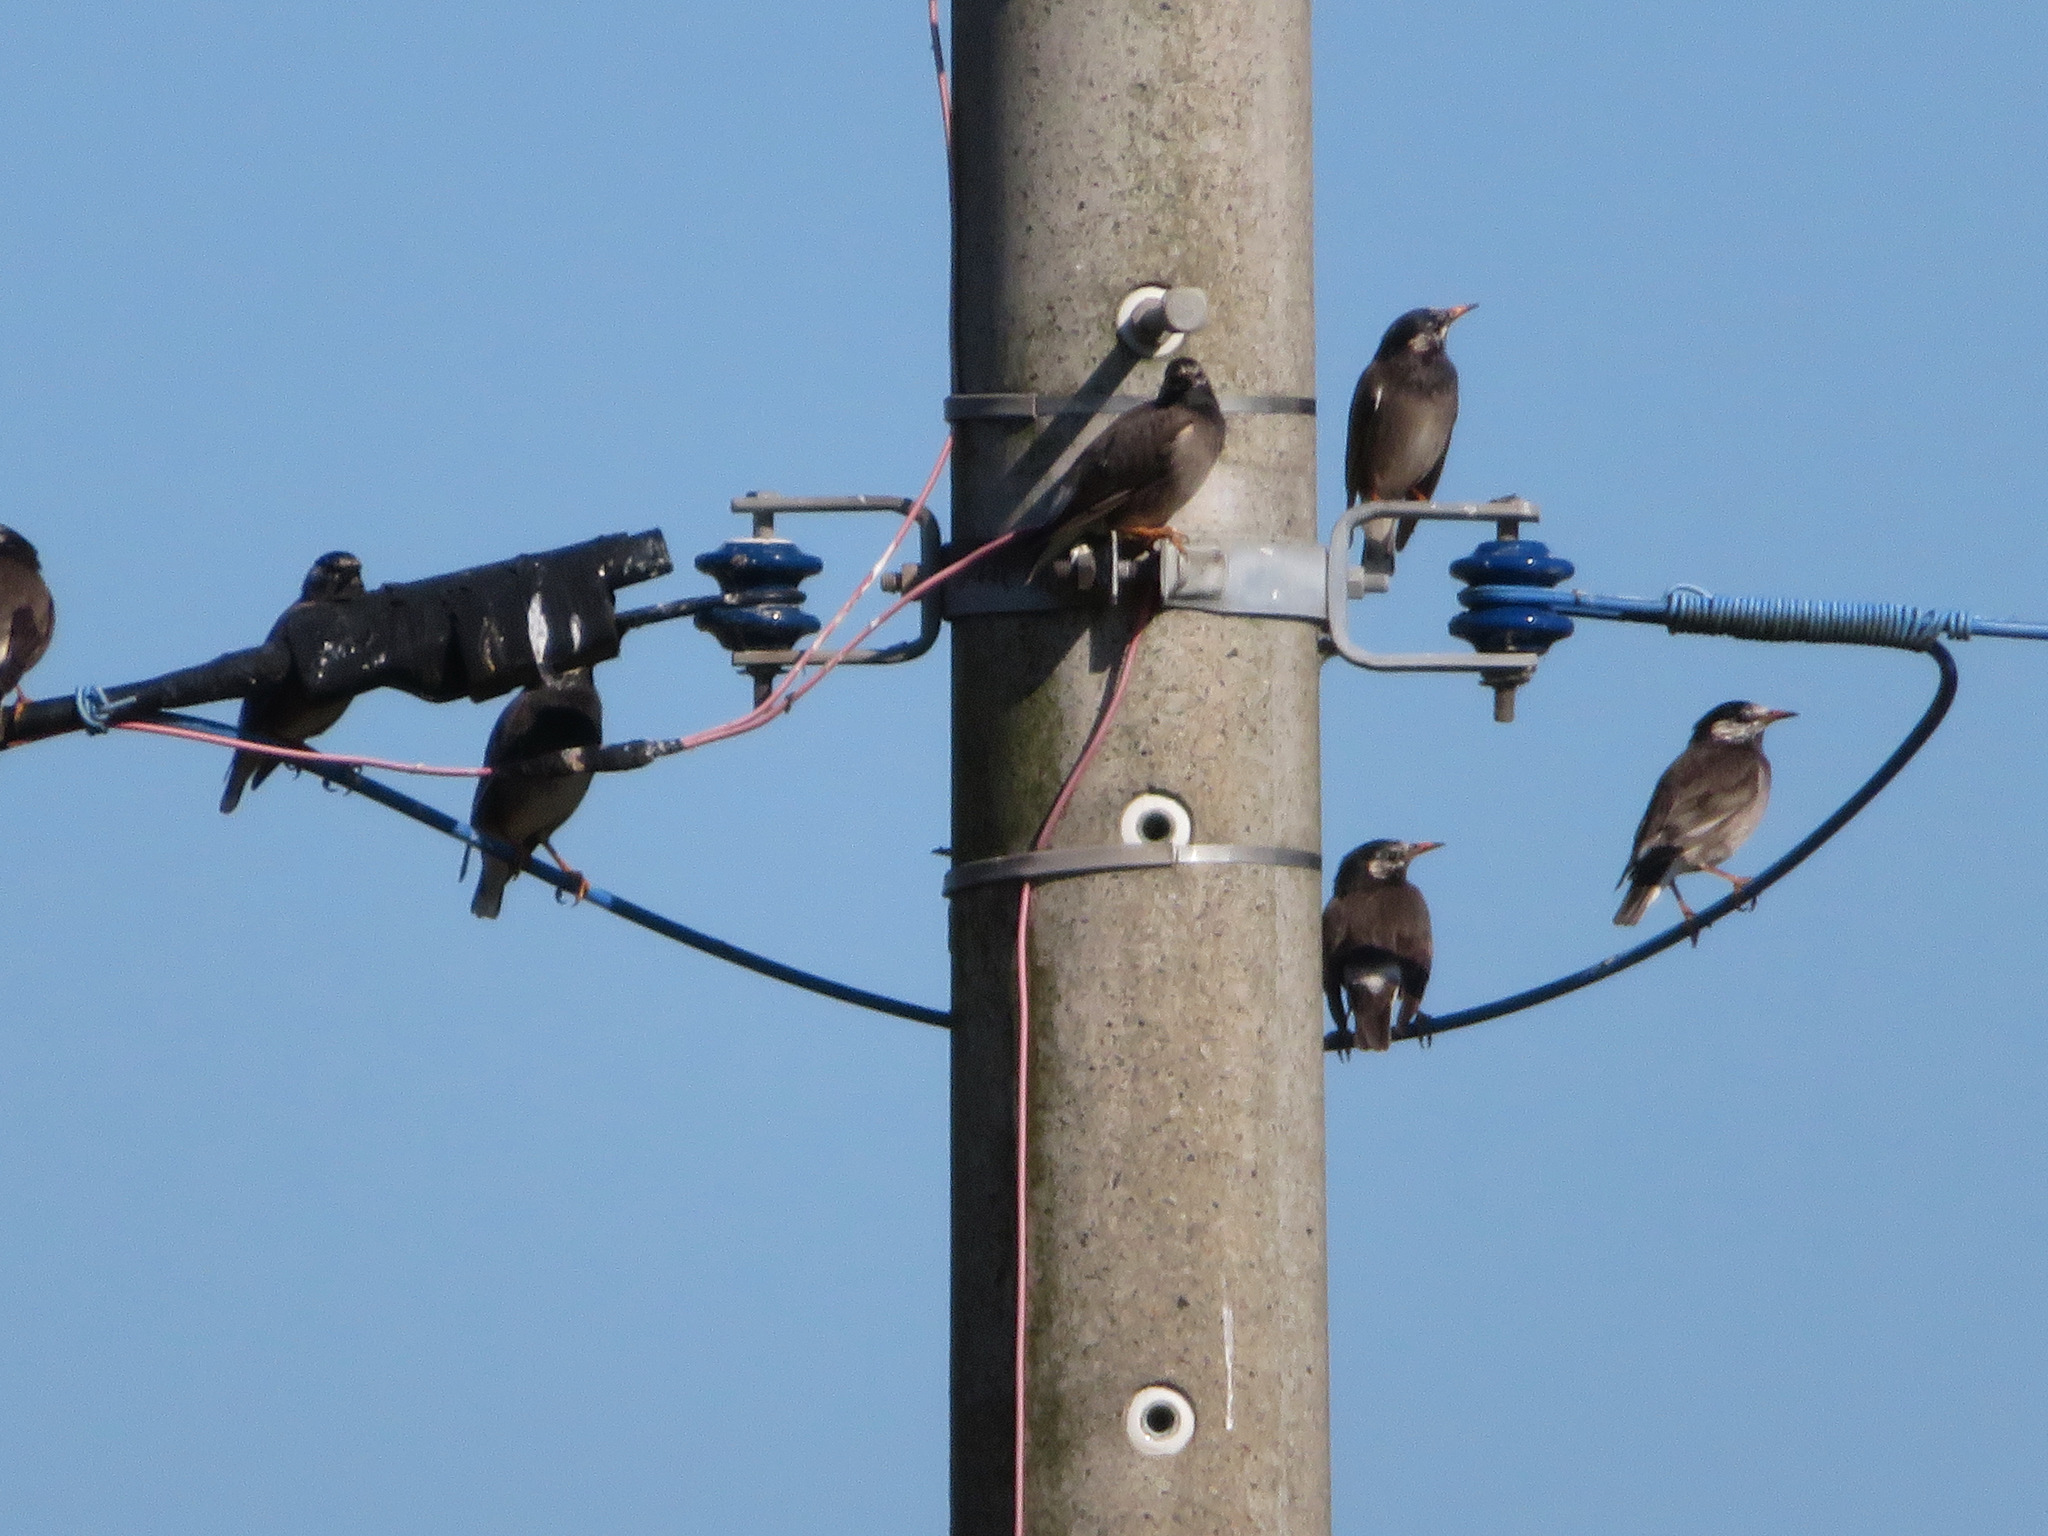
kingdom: Animalia
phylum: Chordata
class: Aves
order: Passeriformes
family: Sturnidae
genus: Spodiopsar
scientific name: Spodiopsar cineraceus
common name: White-cheeked starling
